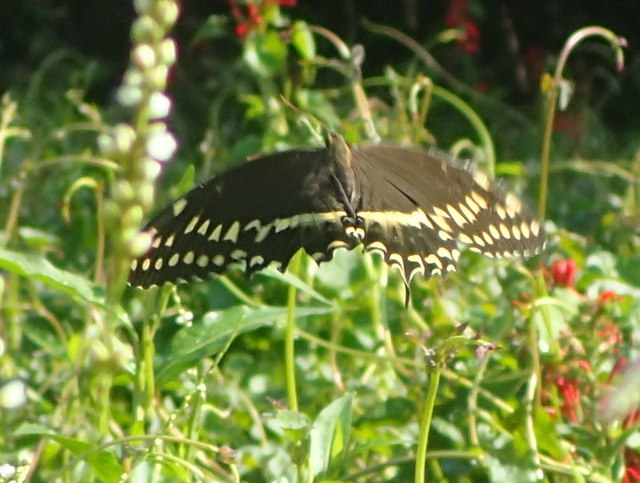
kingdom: Animalia
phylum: Arthropoda
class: Insecta
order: Lepidoptera
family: Papilionidae
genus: Papilio
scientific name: Papilio palamedes
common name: Palamedes swallowtail
